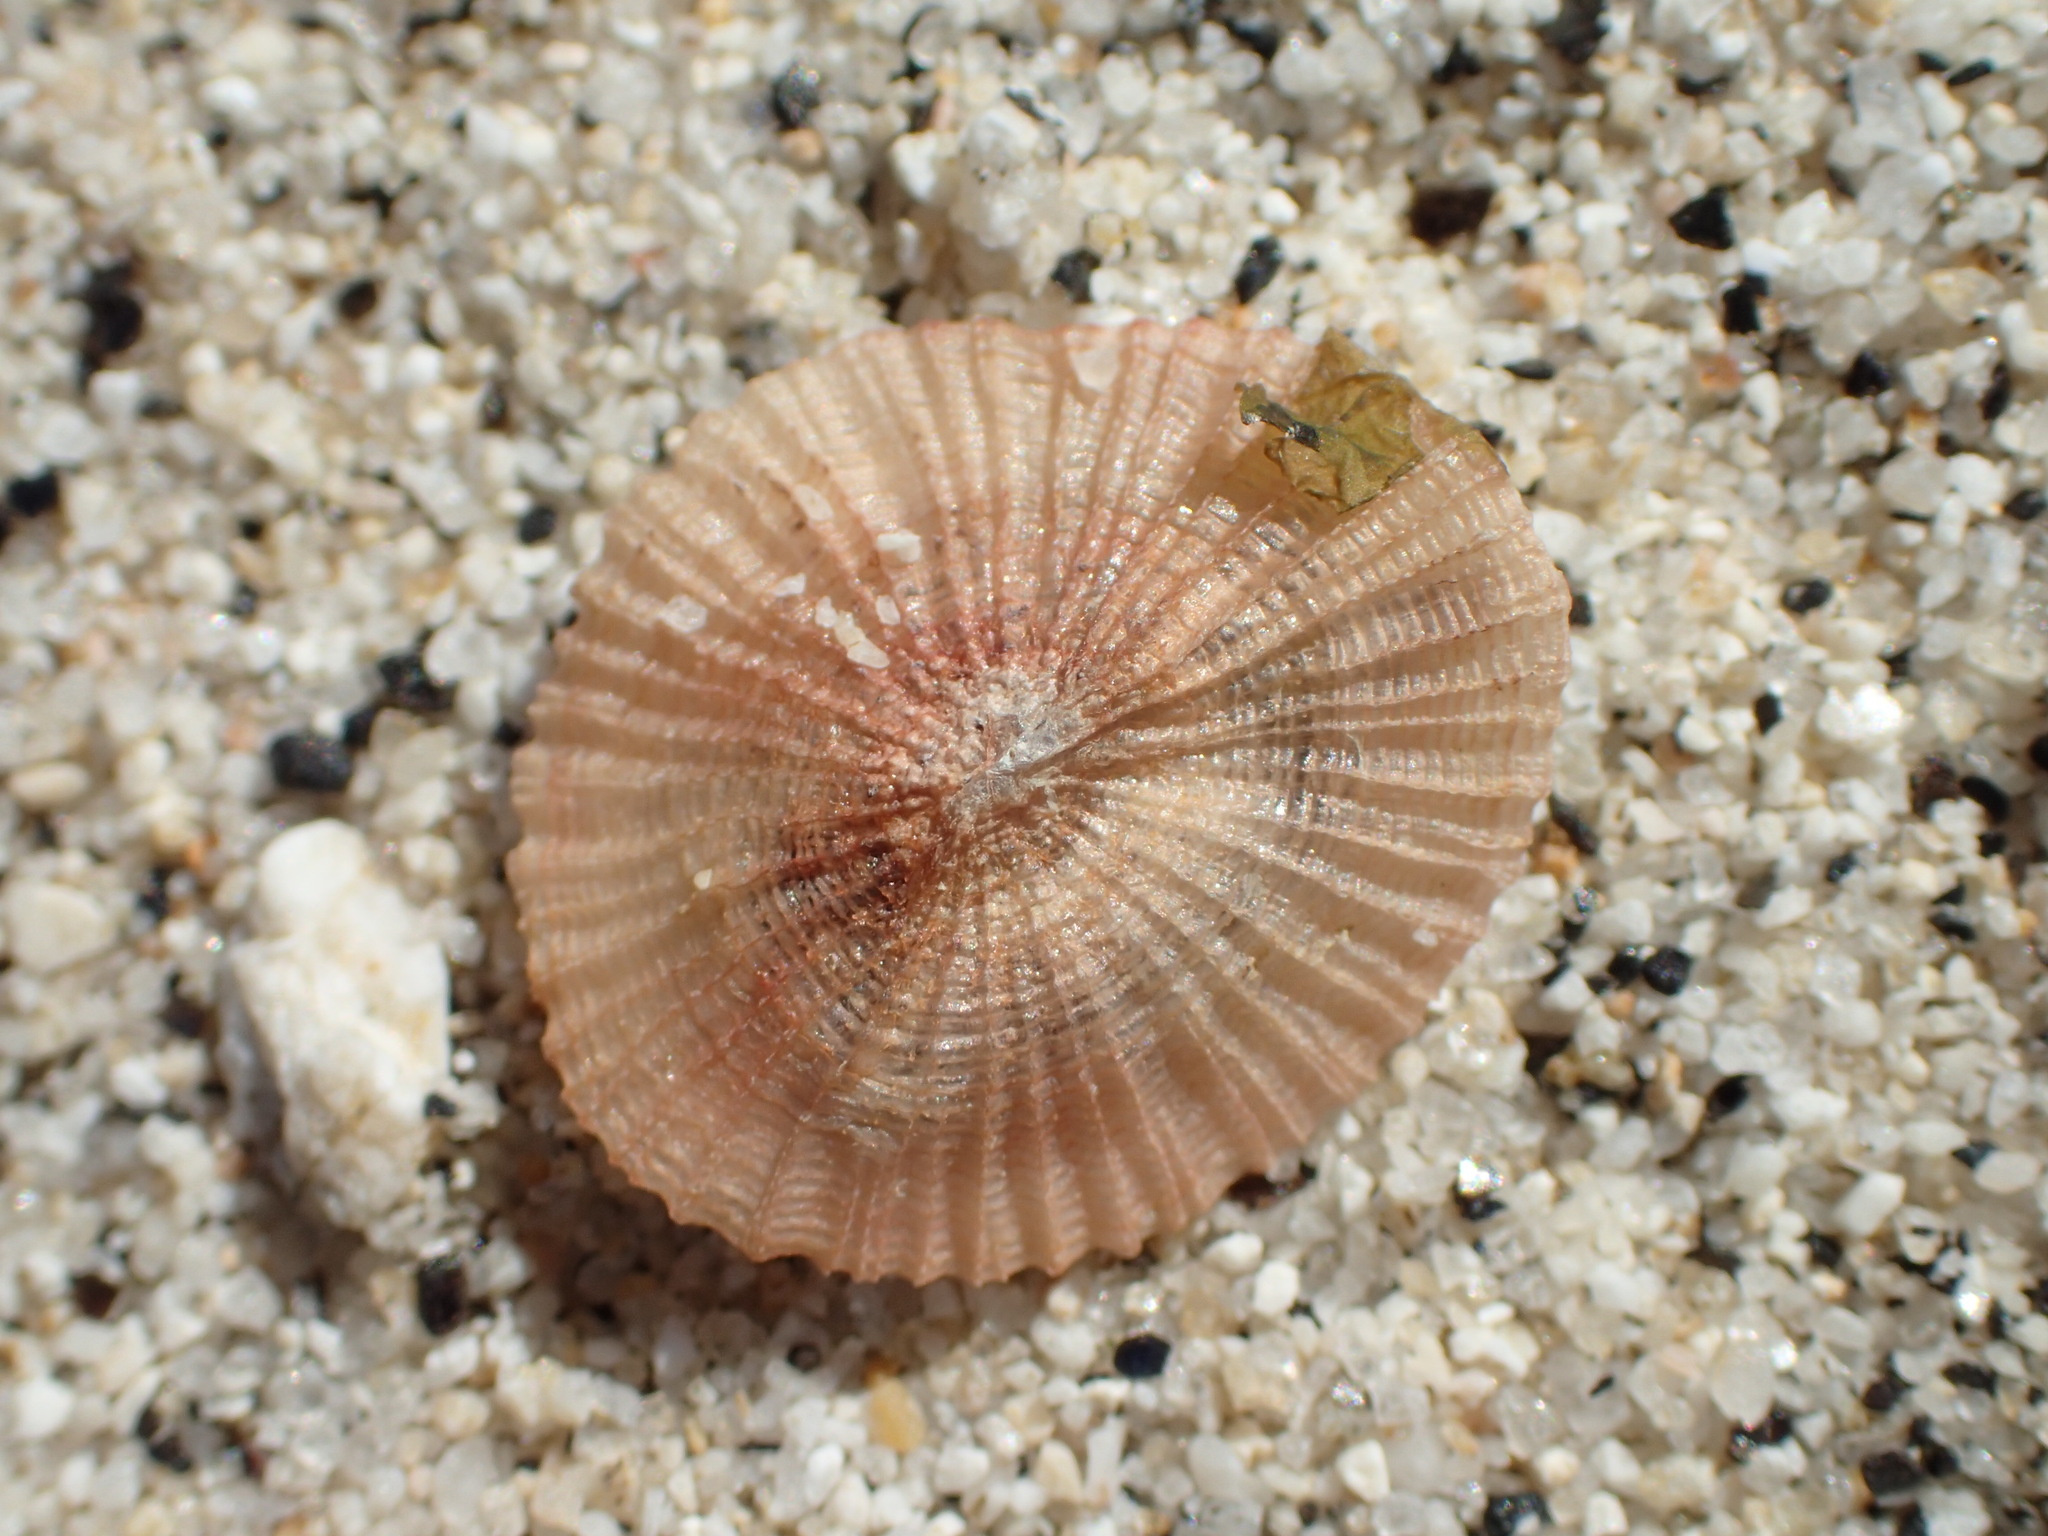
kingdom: Animalia
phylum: Cnidaria
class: Hydrozoa
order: Anthoathecata
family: Porpitidae
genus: Porpita
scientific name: Porpita porpita
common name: Blue button
